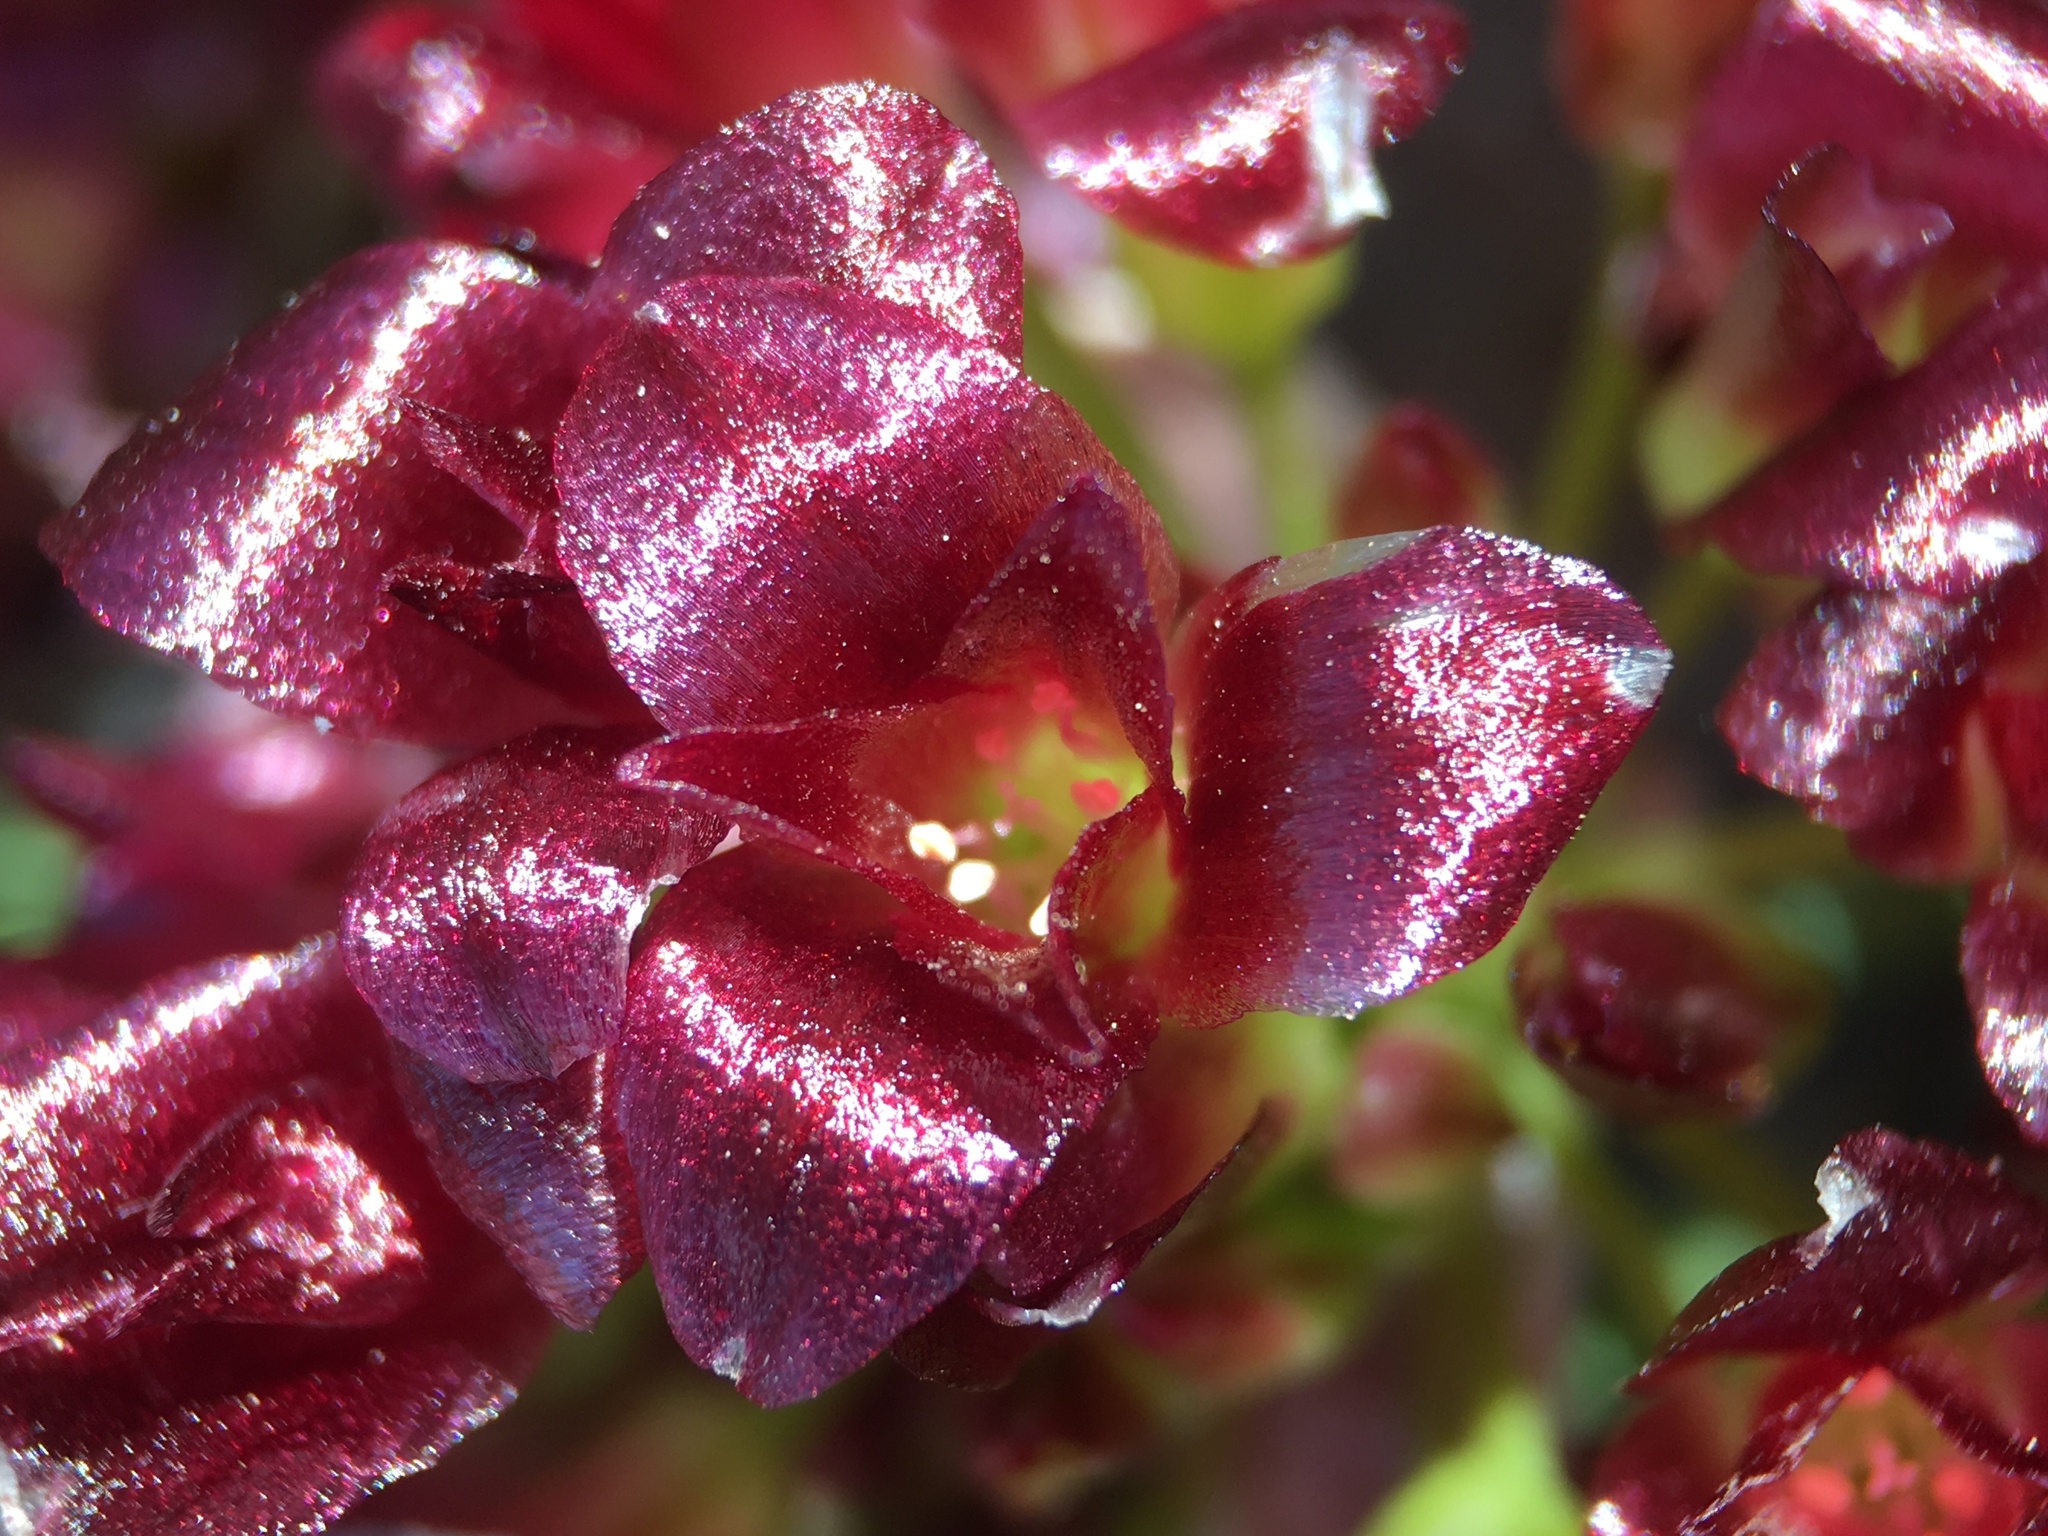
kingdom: Plantae
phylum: Tracheophyta
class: Liliopsida
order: Asparagales
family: Amaryllidaceae
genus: Allium
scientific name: Allium shevockii
